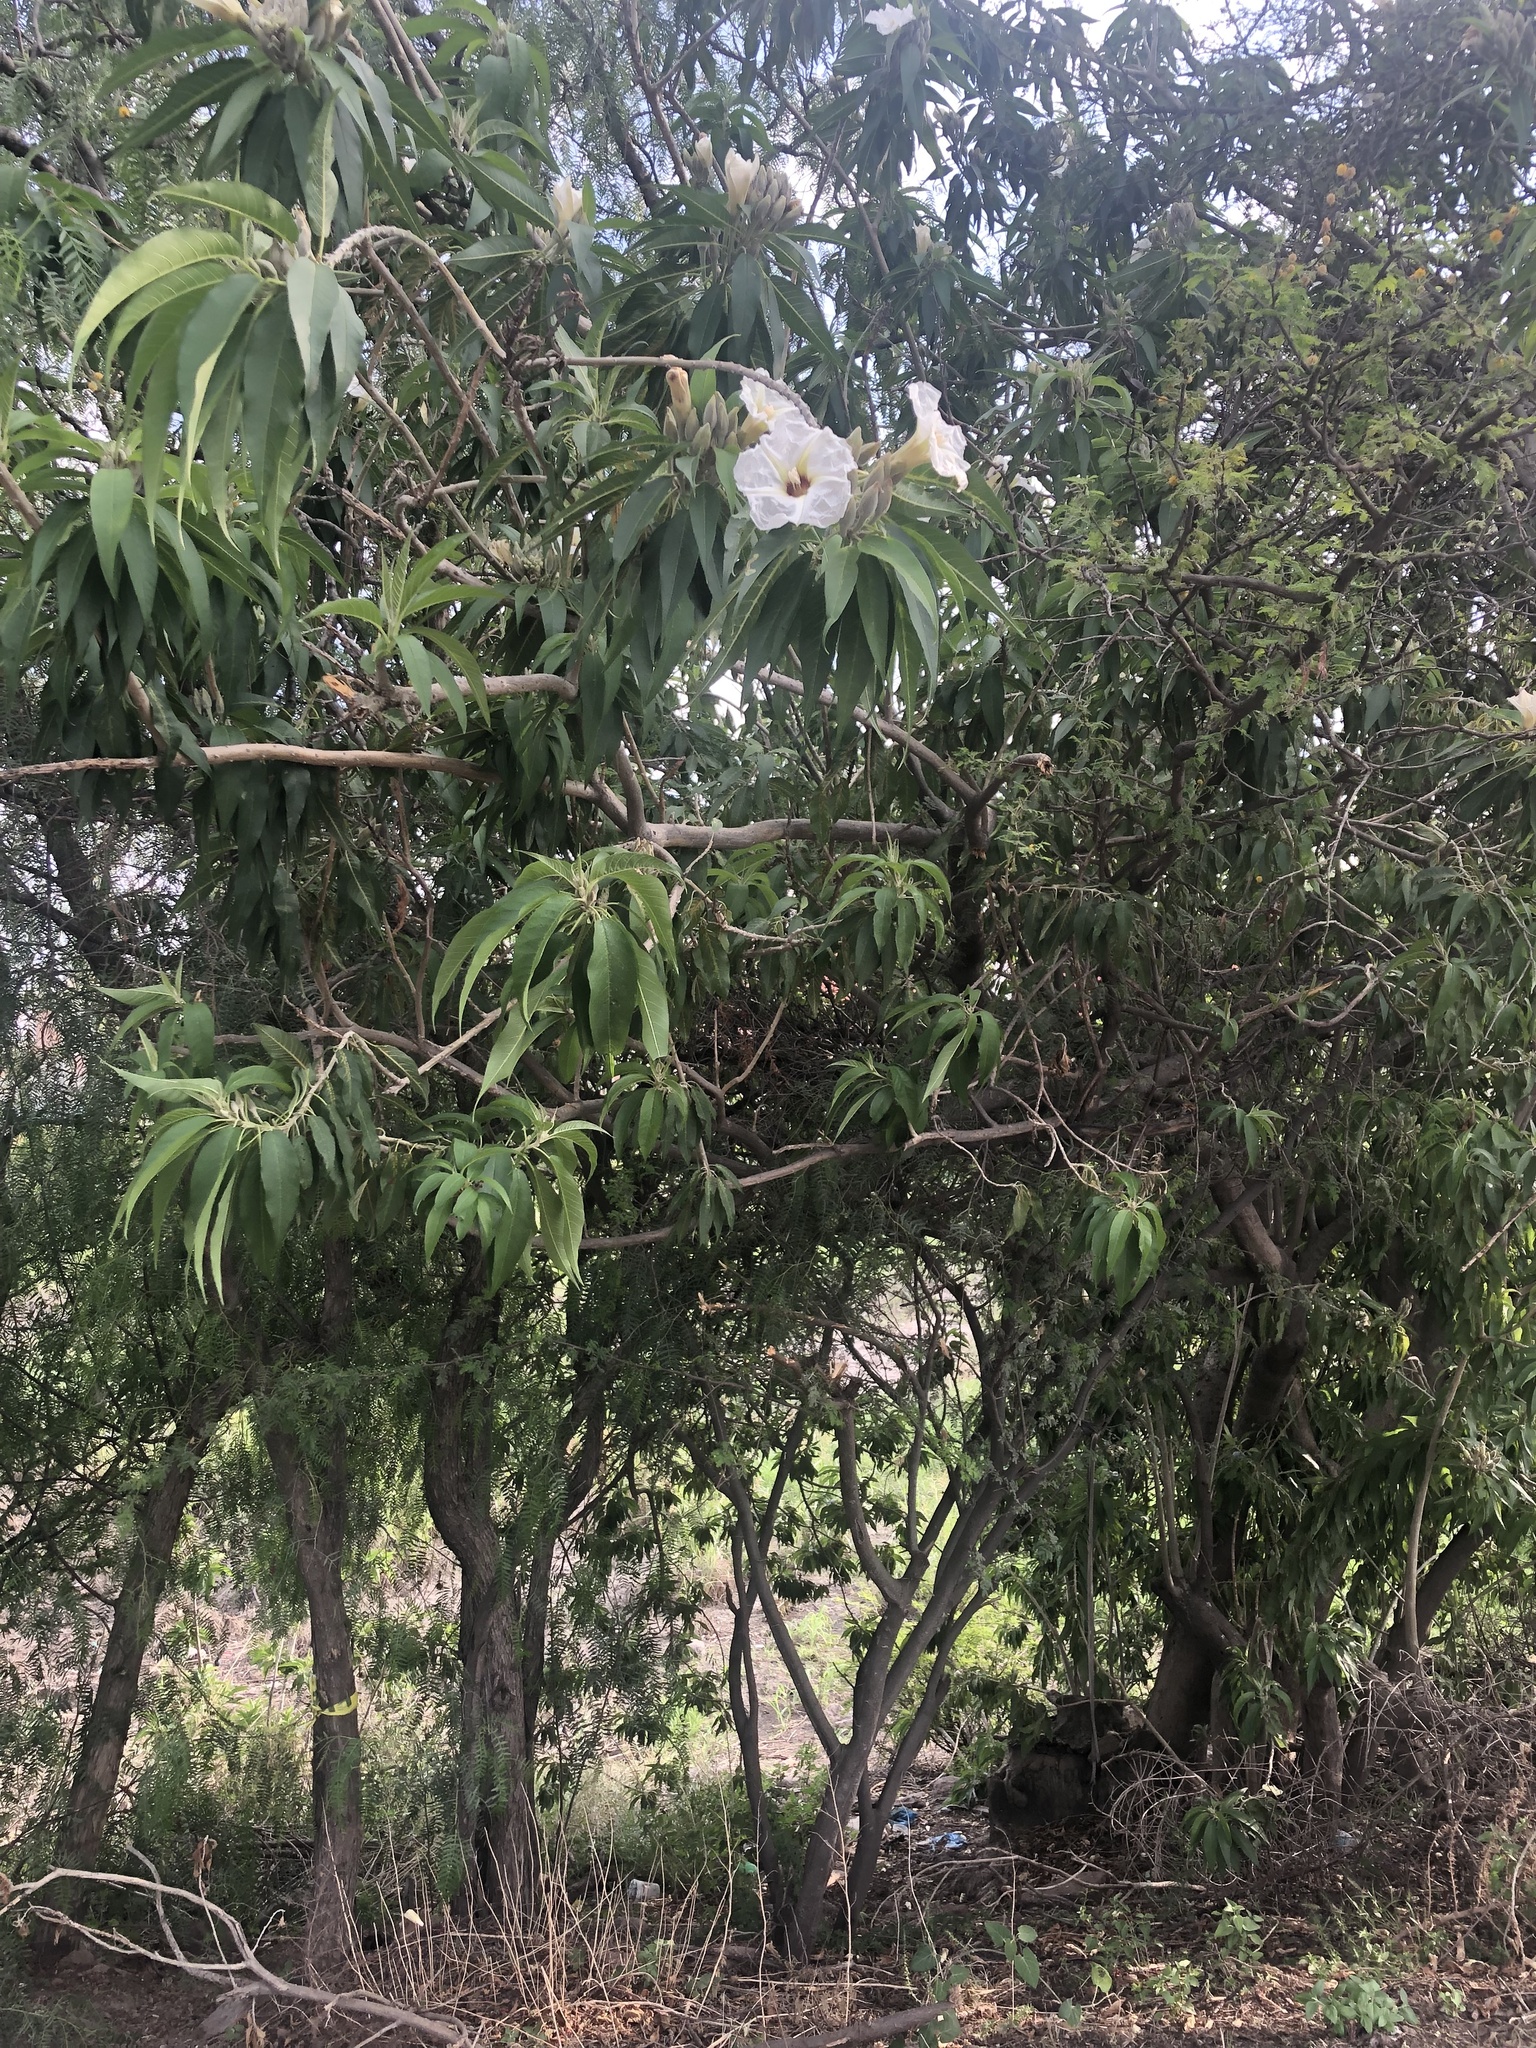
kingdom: Plantae
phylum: Tracheophyta
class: Magnoliopsida
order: Solanales
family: Convolvulaceae
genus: Ipomoea
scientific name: Ipomoea murucoides
